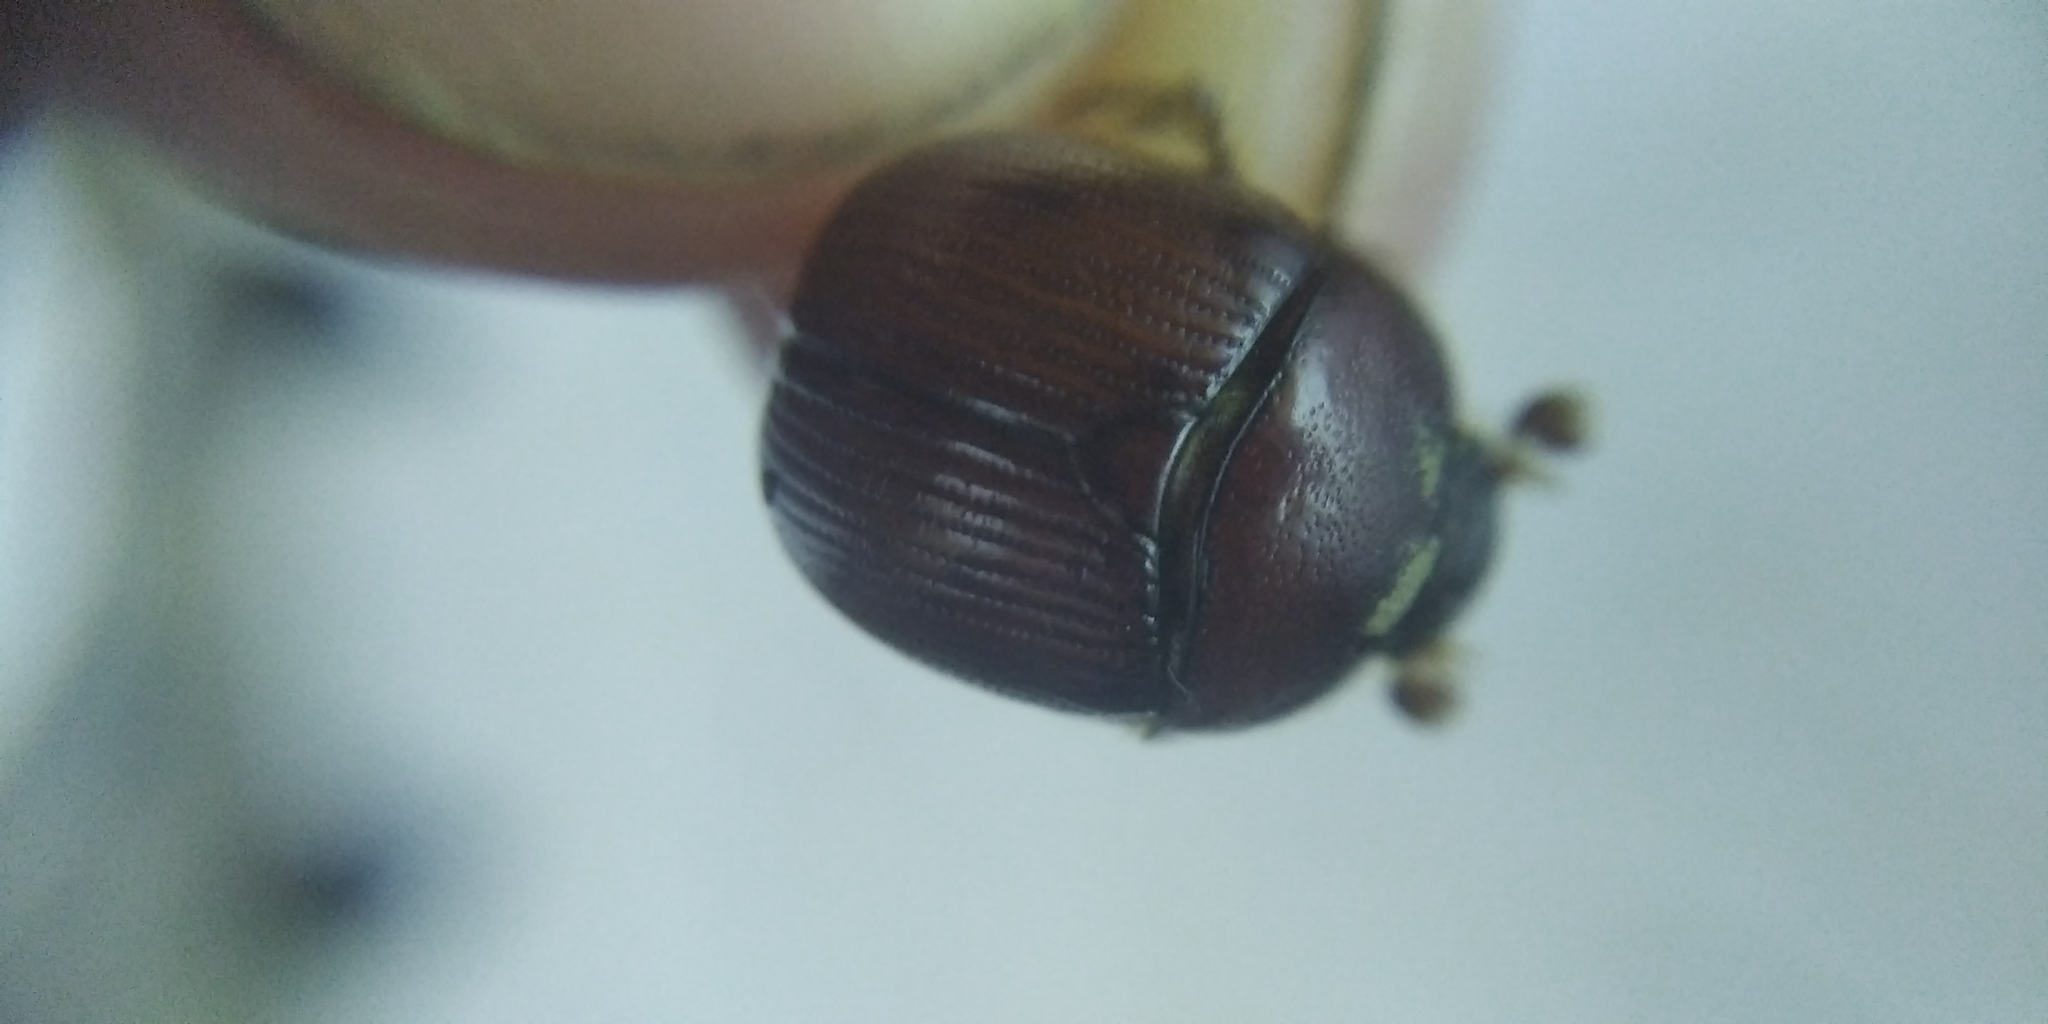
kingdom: Animalia
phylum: Arthropoda
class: Insecta
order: Coleoptera
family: Geotrupidae
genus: Bolbelasmus
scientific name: Bolbelasmus unicornis
